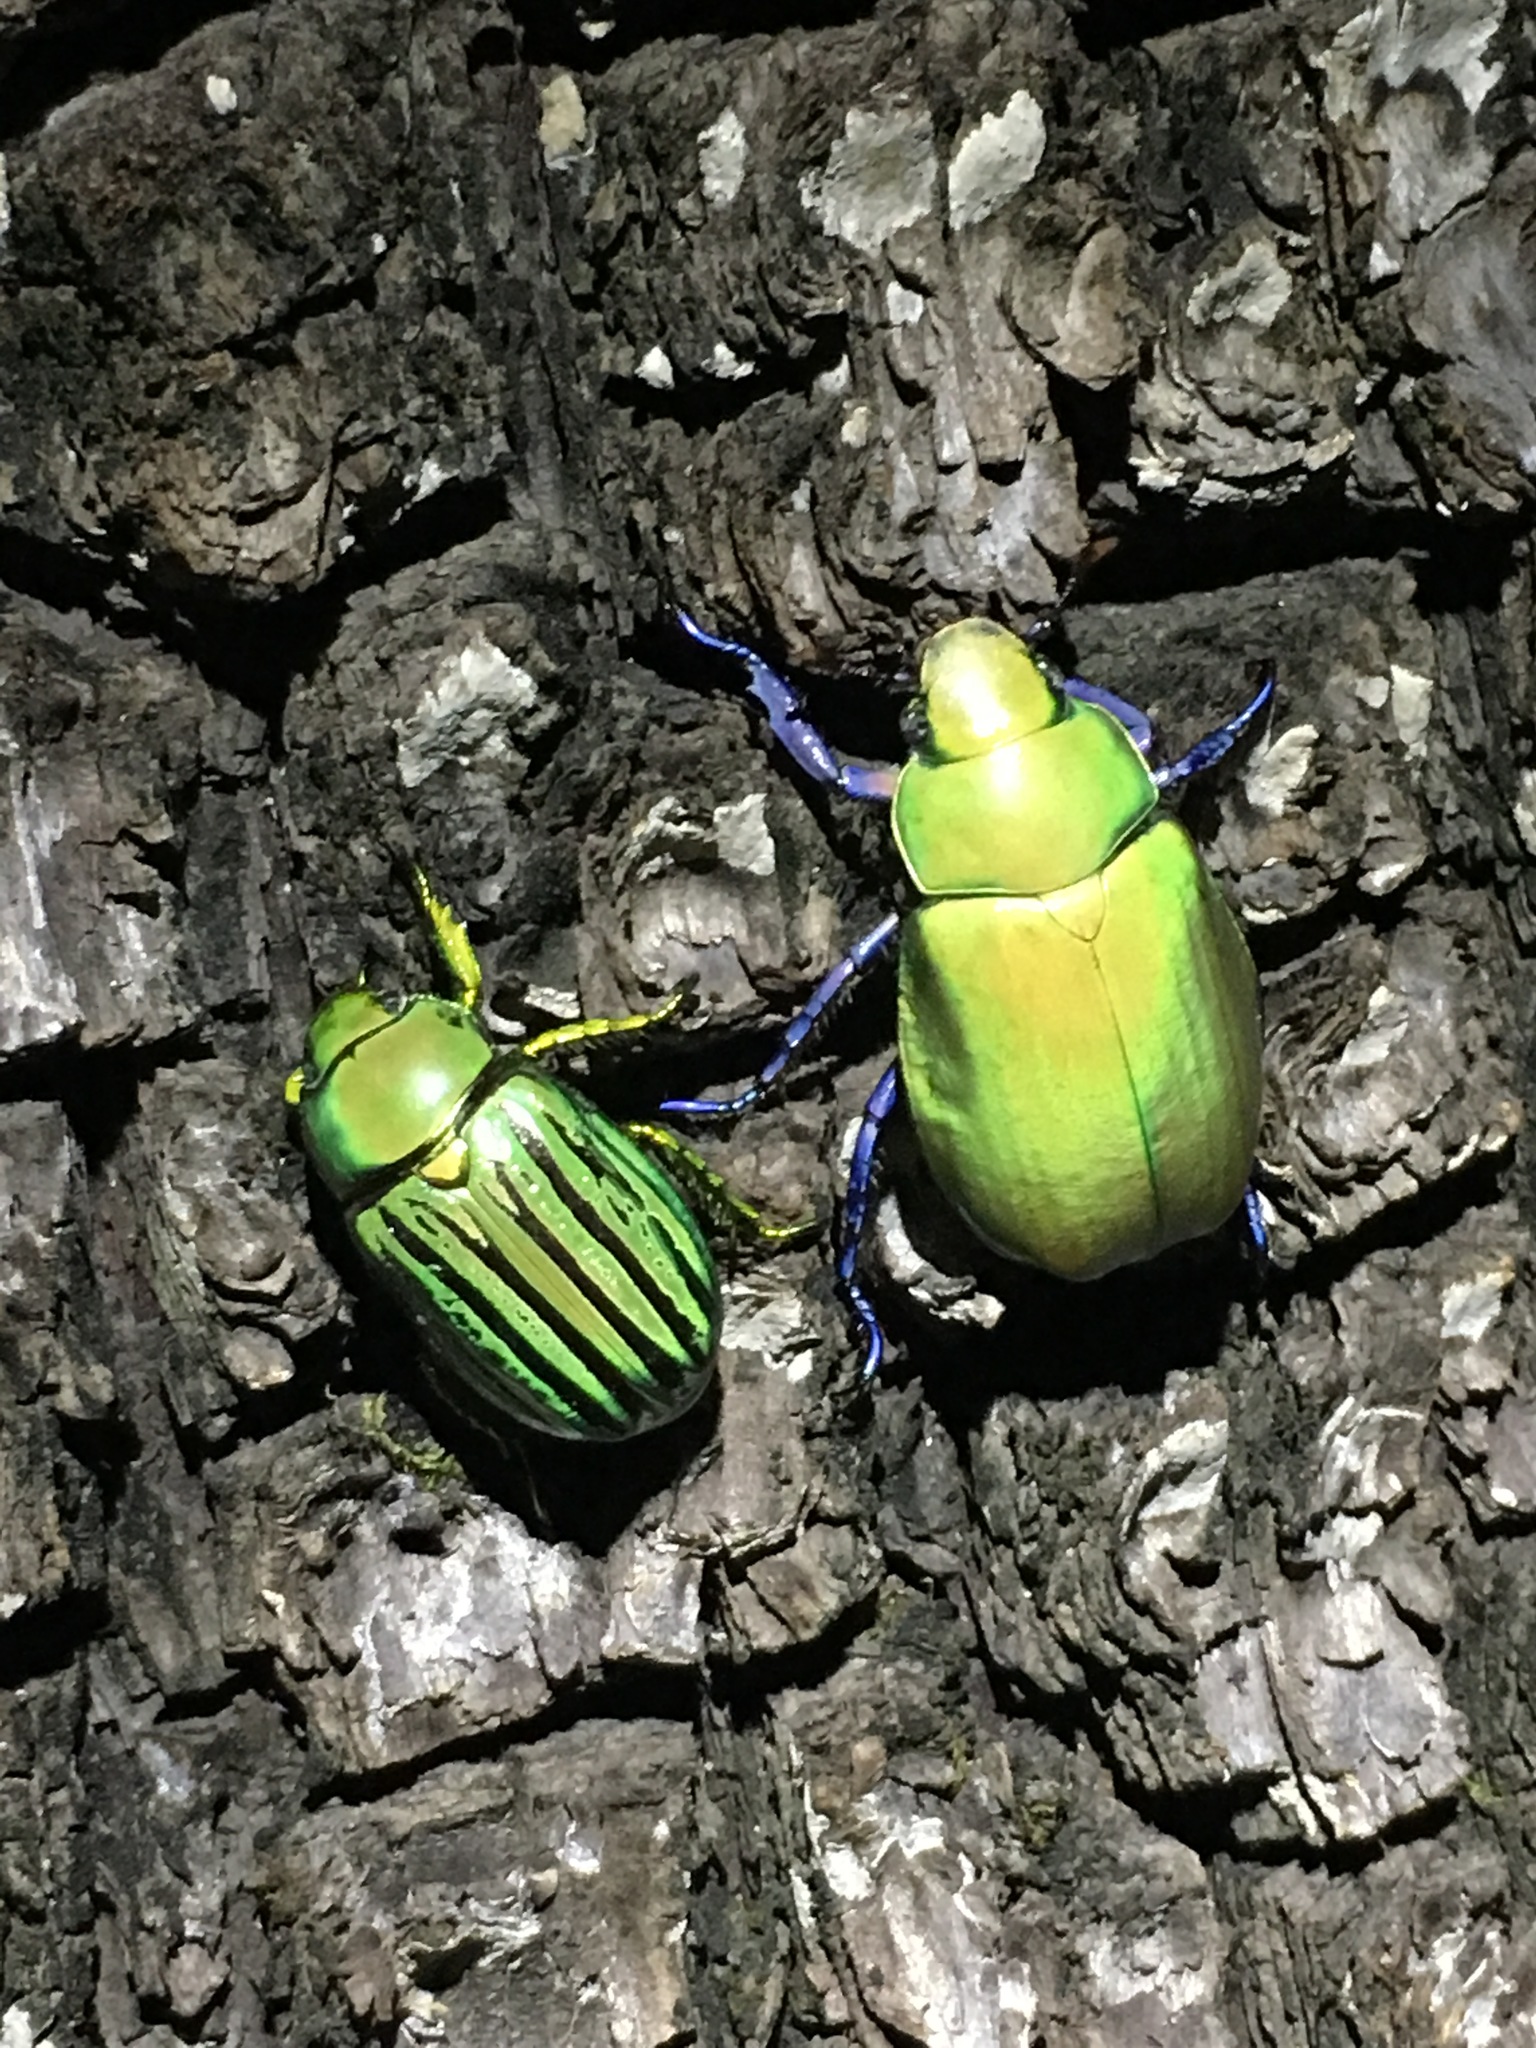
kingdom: Animalia
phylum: Arthropoda
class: Insecta
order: Coleoptera
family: Scarabaeidae
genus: Chrysina
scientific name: Chrysina gloriosa
